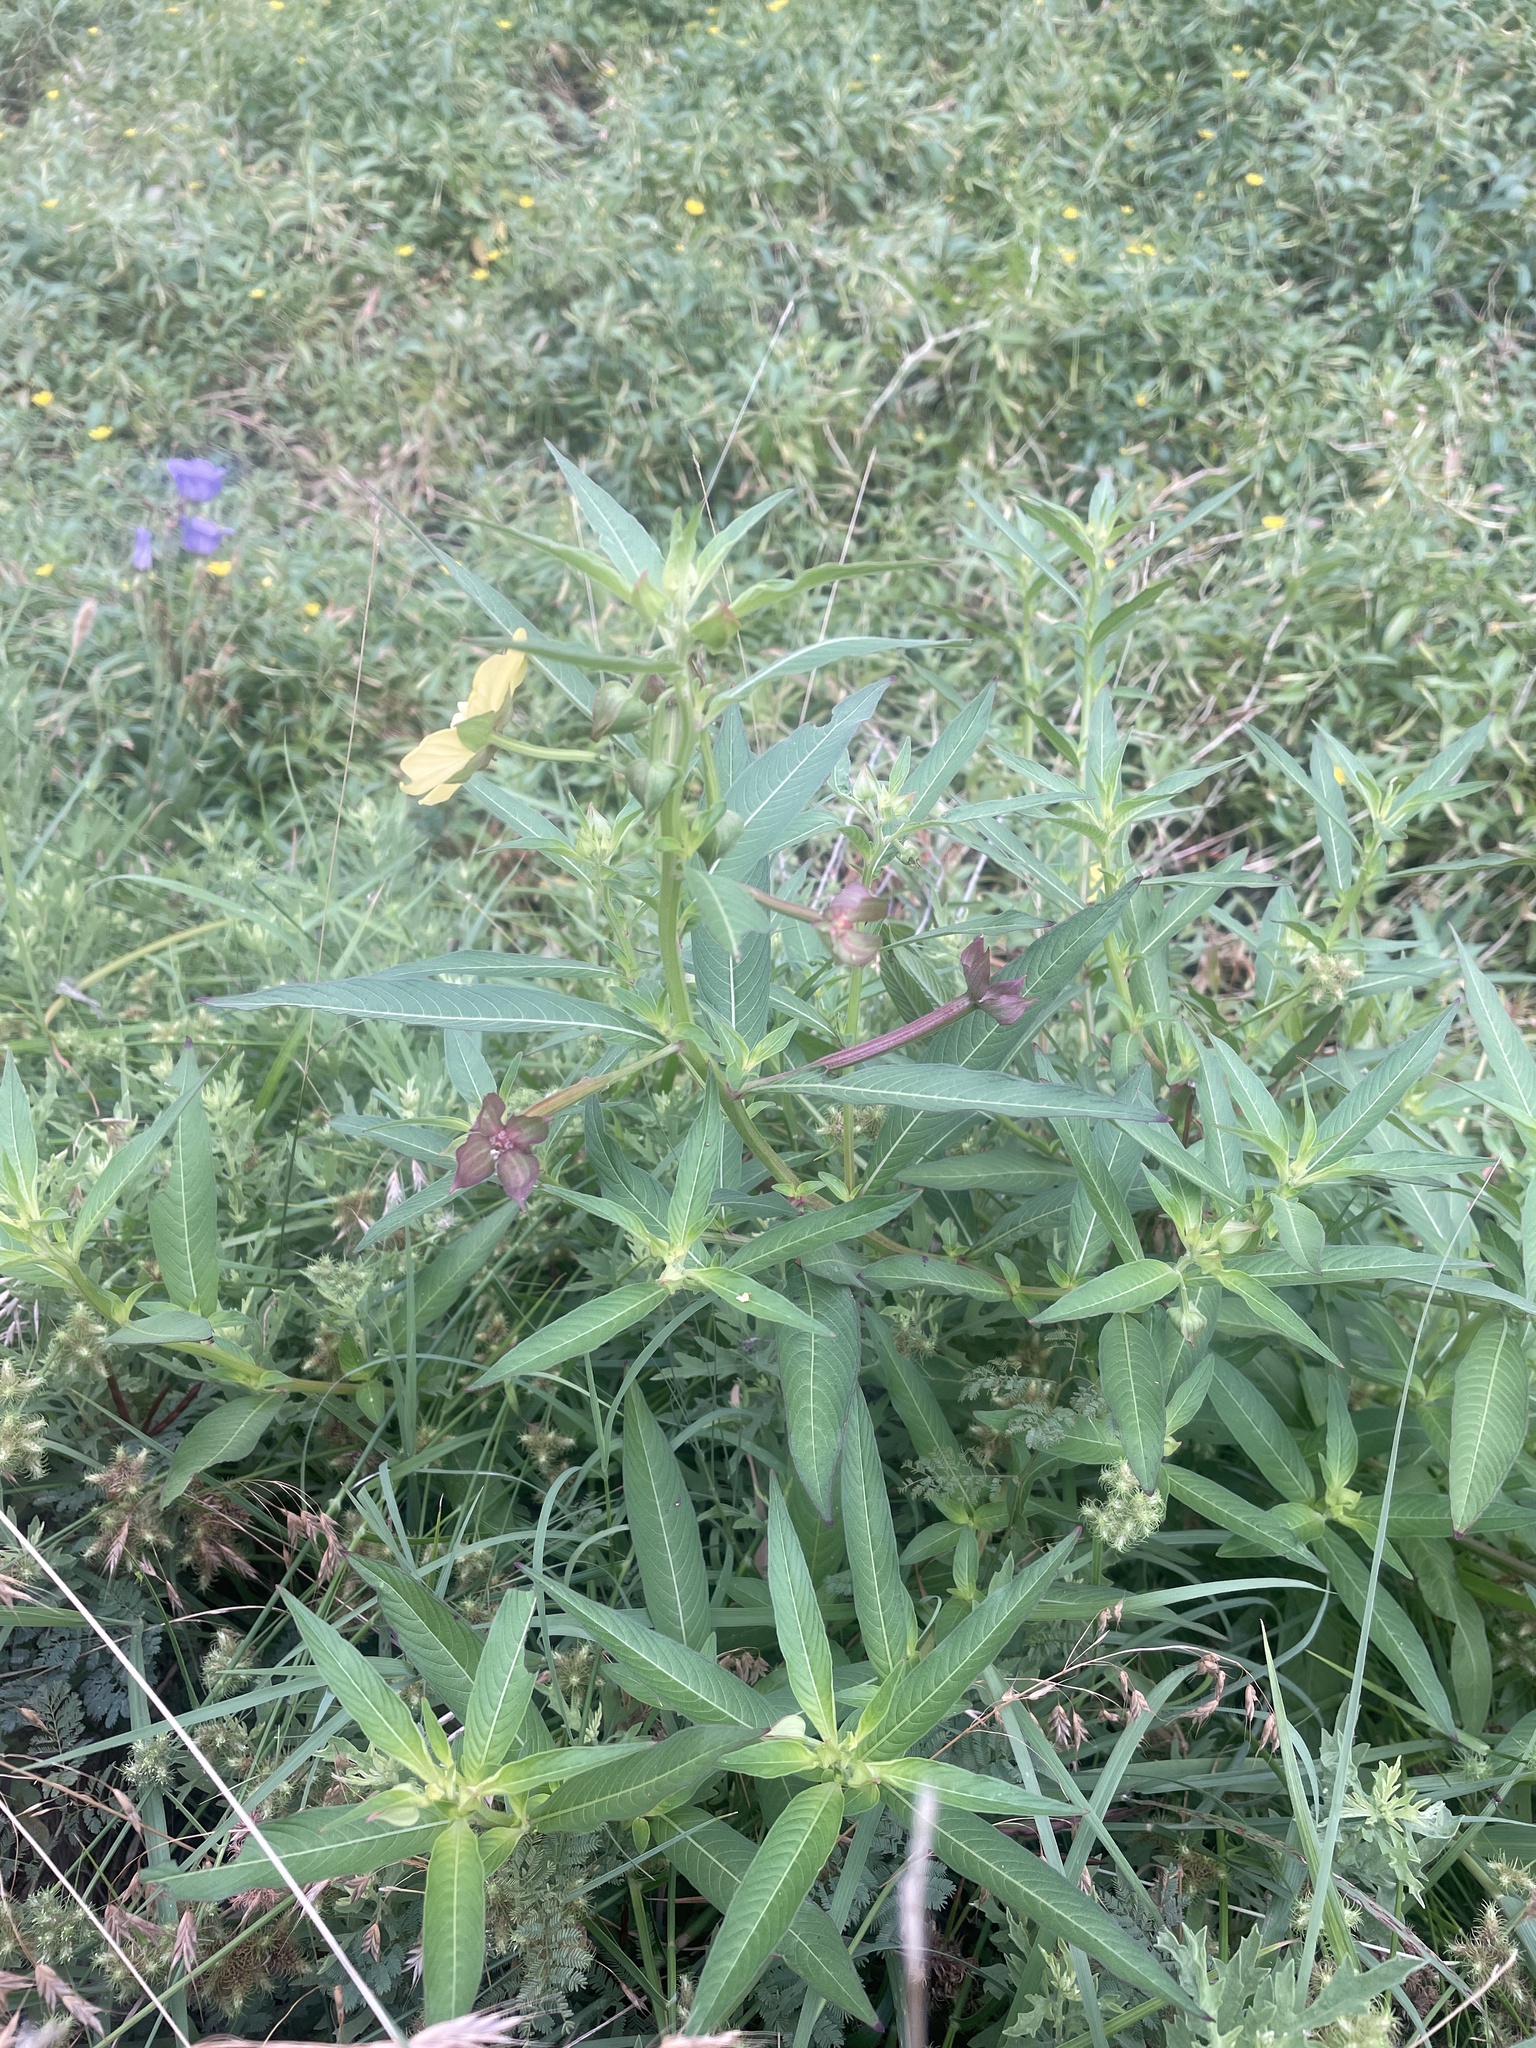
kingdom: Plantae
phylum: Tracheophyta
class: Magnoliopsida
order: Myrtales
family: Onagraceae
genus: Ludwigia
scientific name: Ludwigia octovalvis
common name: Water-primrose
